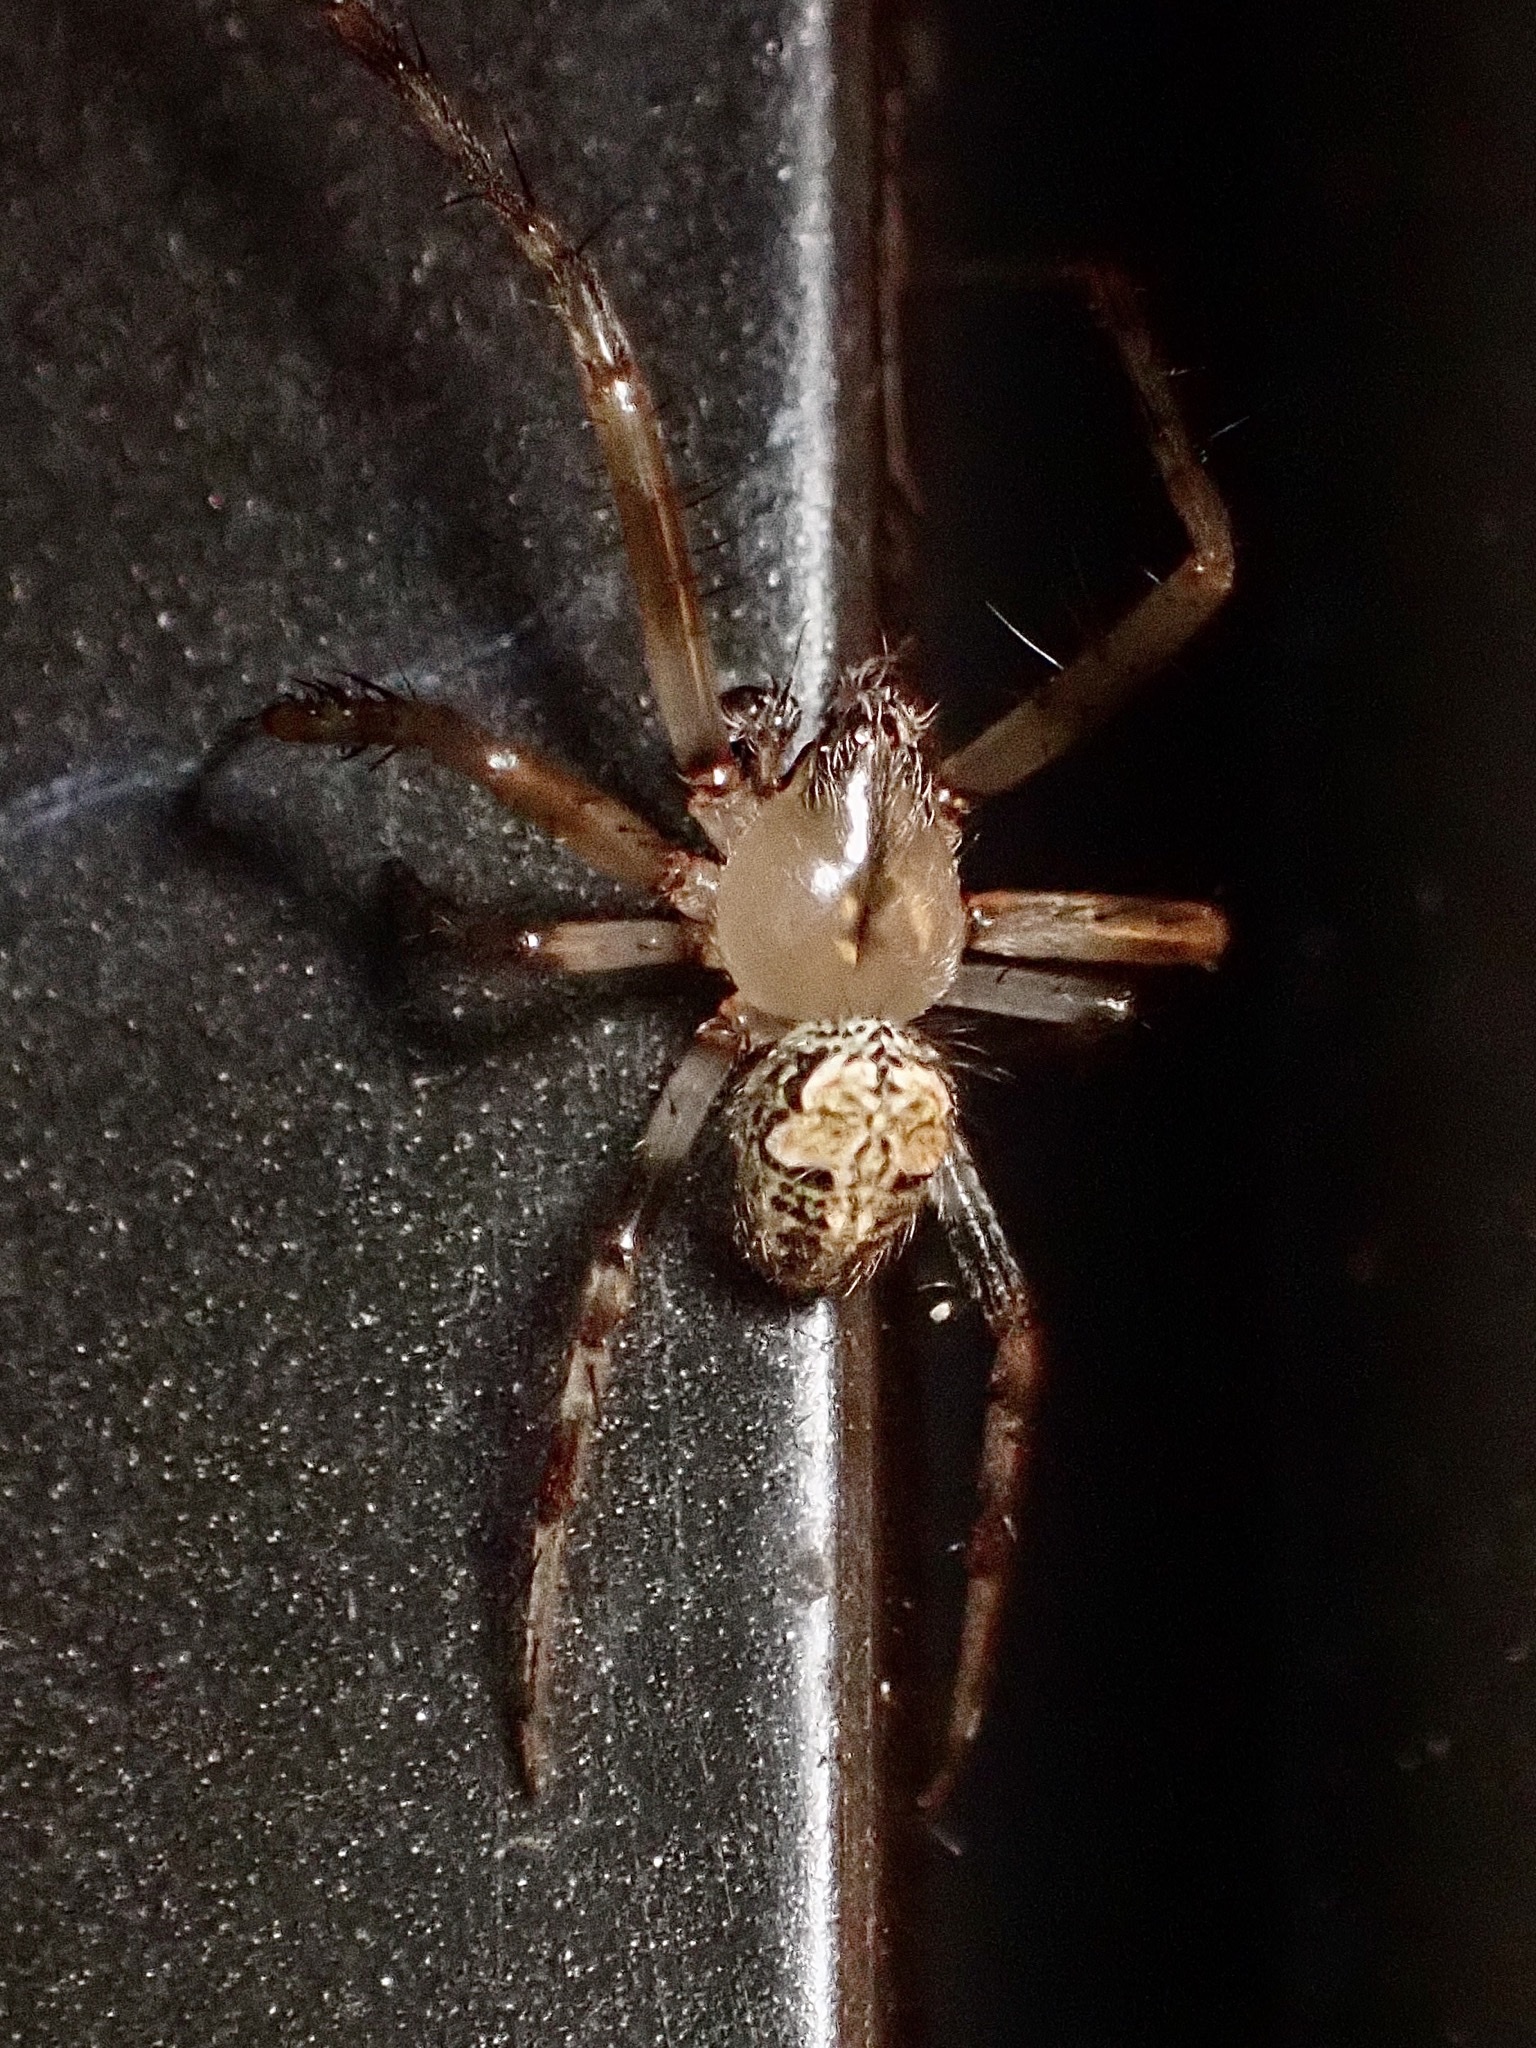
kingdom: Animalia
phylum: Arthropoda
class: Arachnida
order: Araneae
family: Araneidae
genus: Araneus
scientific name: Araneus pegnia
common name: Orb weavers
